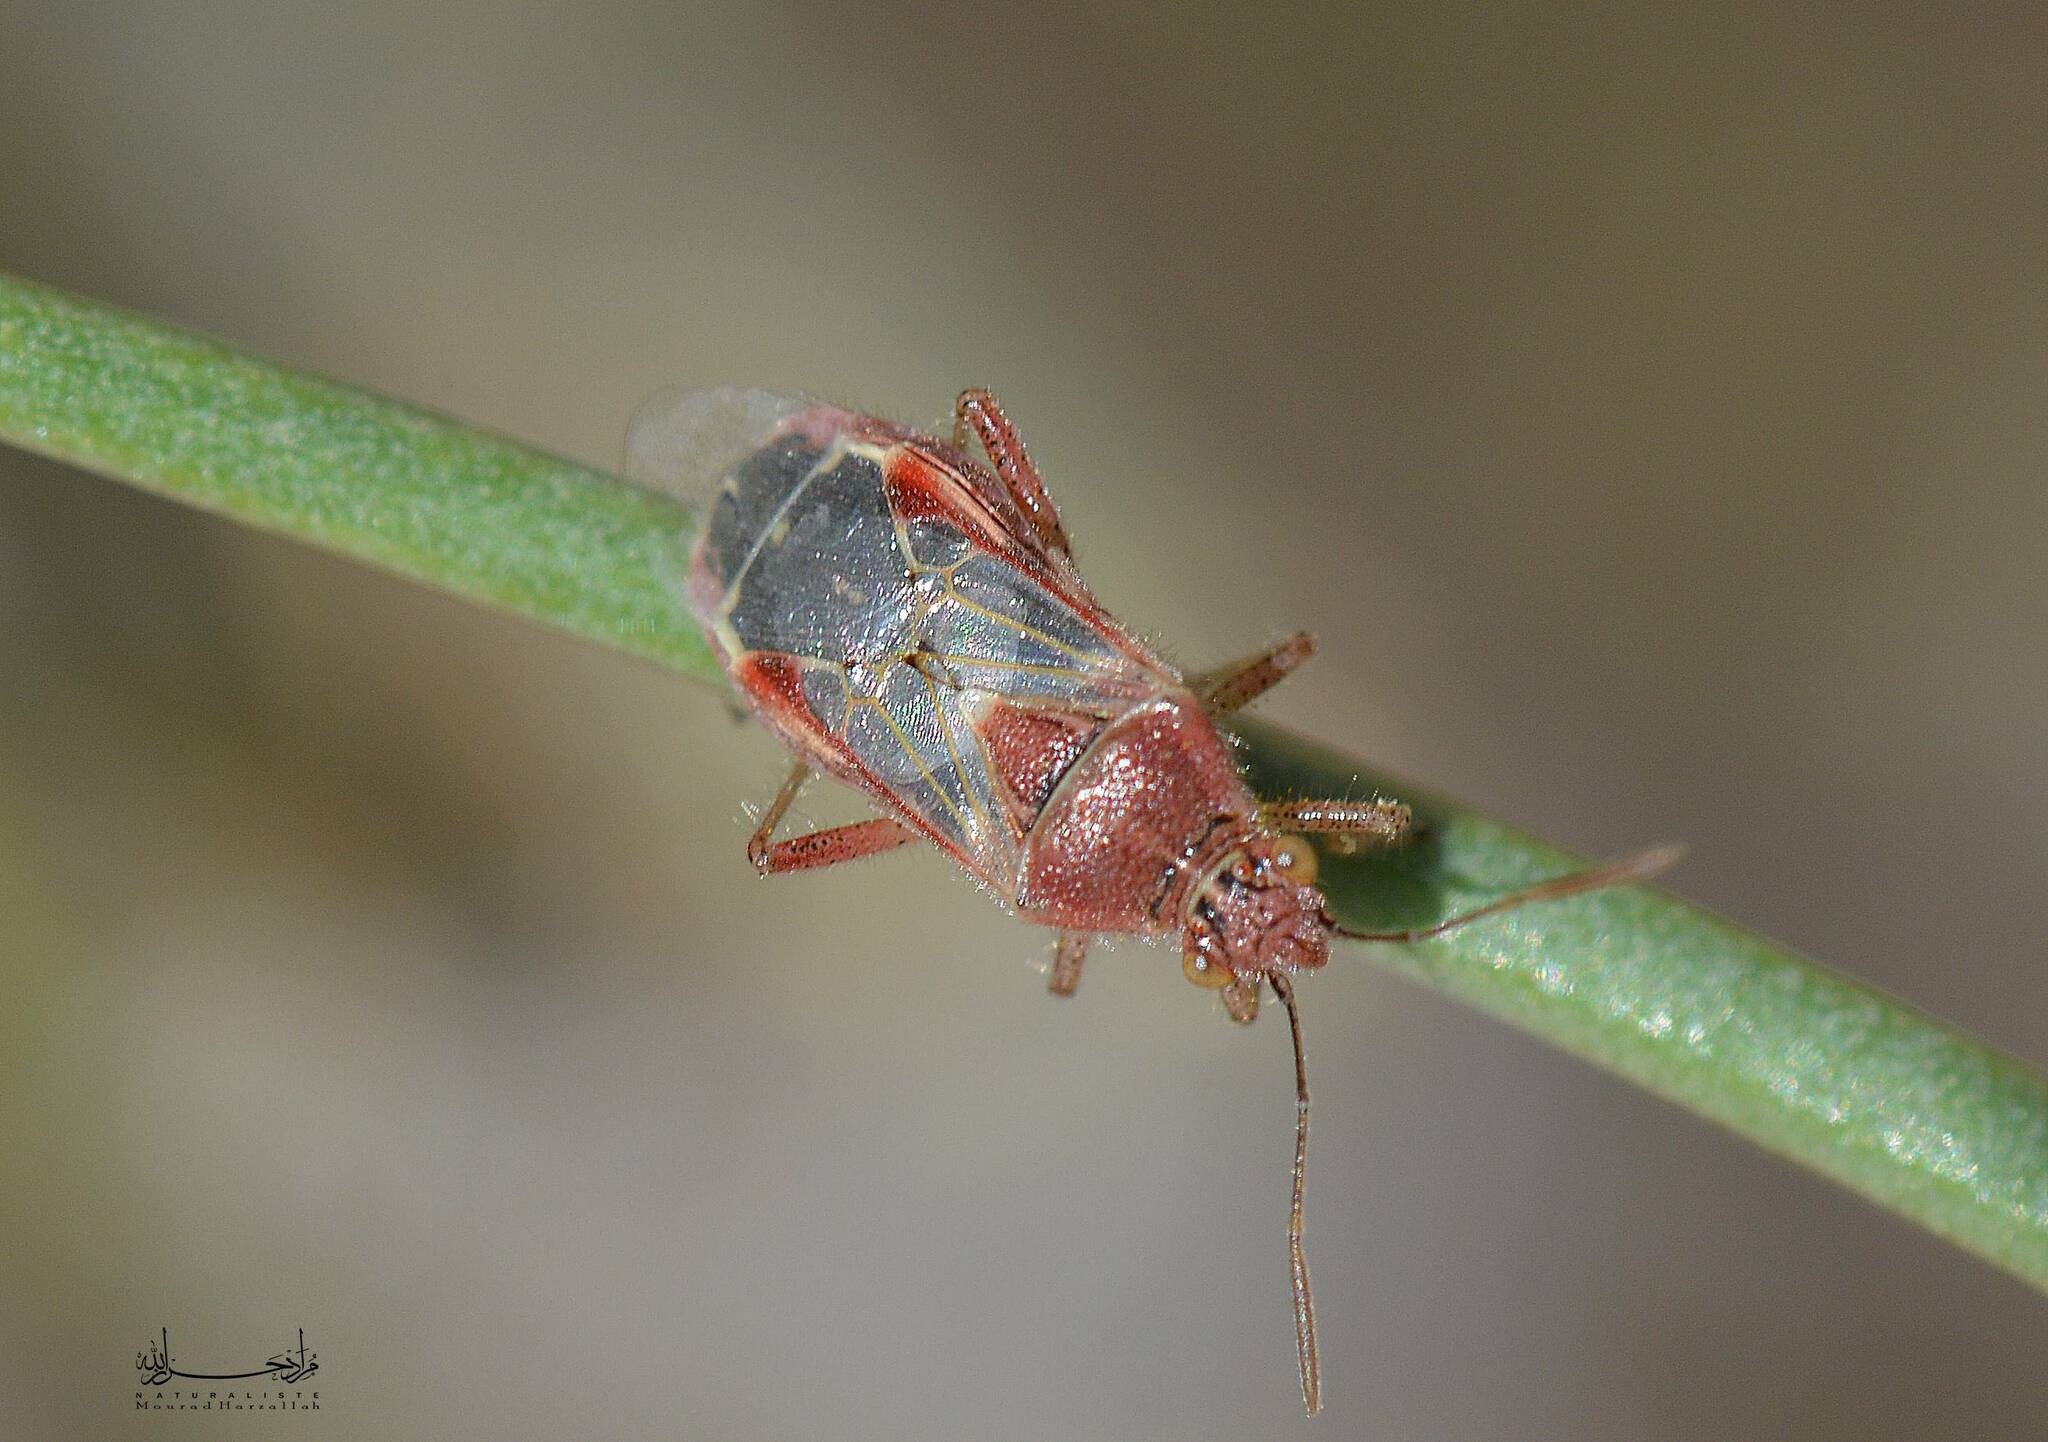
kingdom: Animalia
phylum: Arthropoda
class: Insecta
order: Hemiptera
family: Rhopalidae
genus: Liorhyssus
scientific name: Liorhyssus hyalinus
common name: Scentless plant bug
